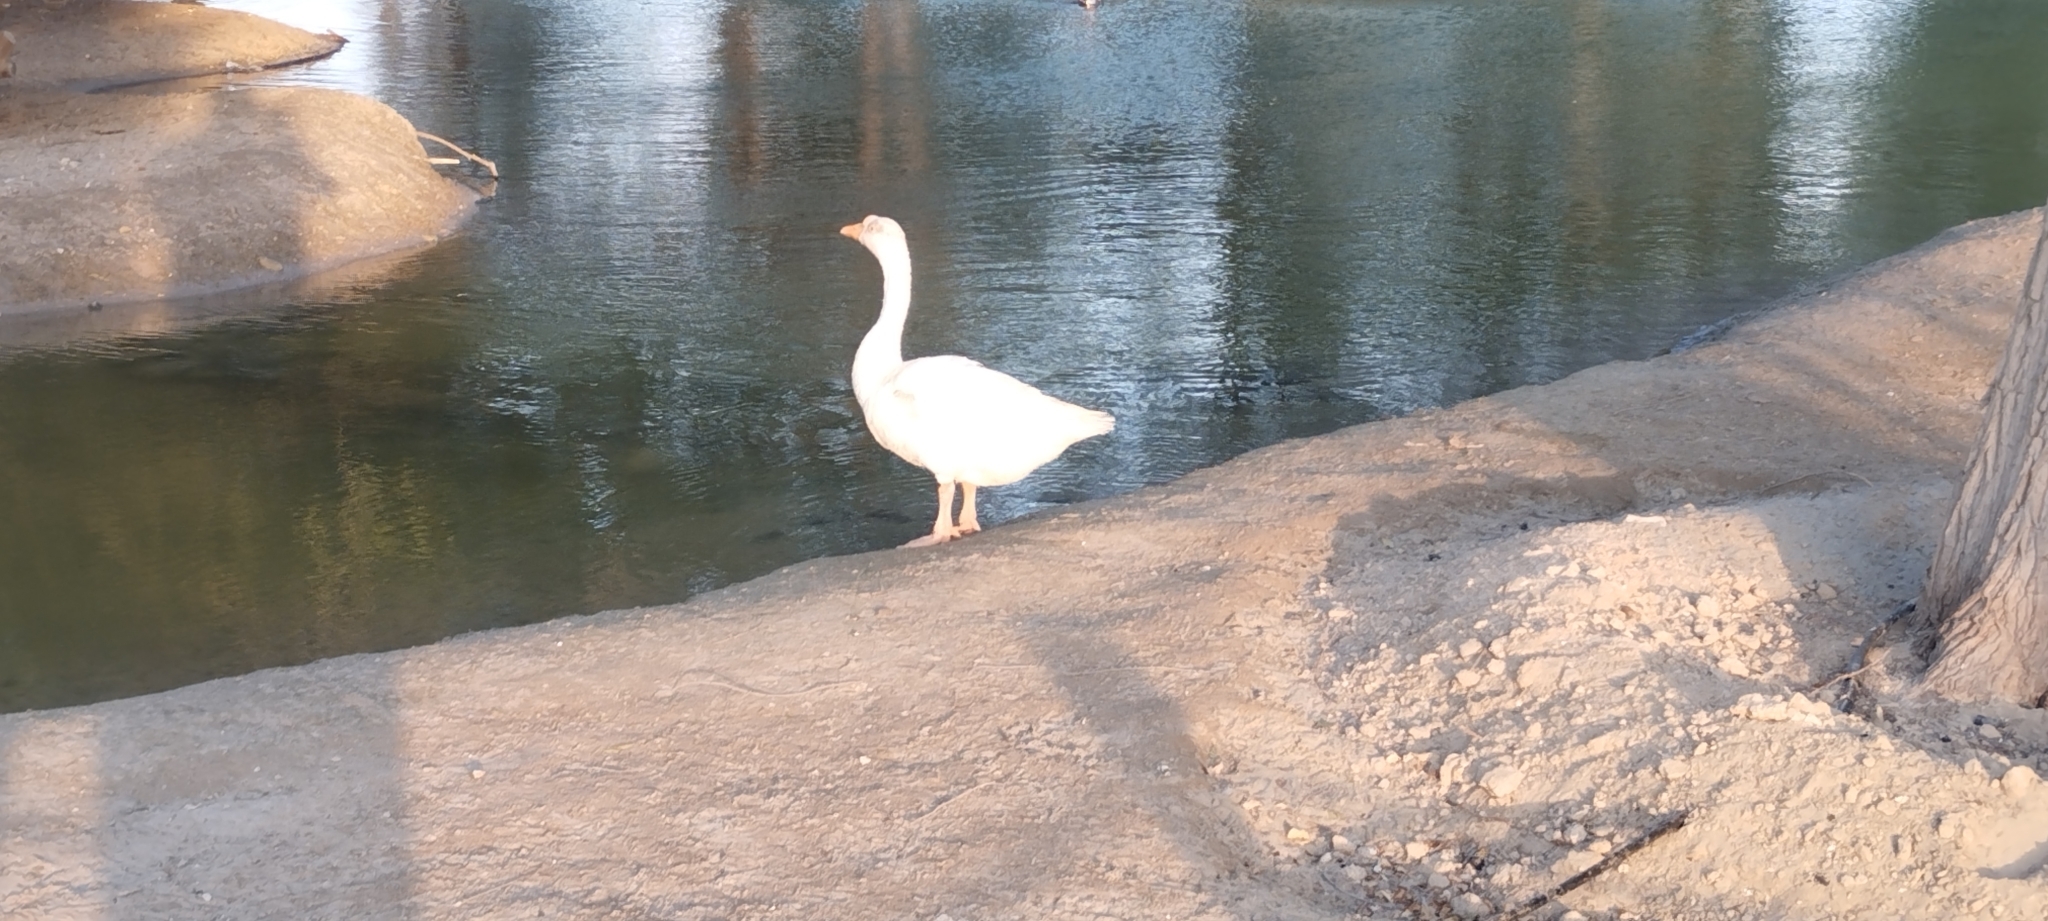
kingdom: Animalia
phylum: Chordata
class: Aves
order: Anseriformes
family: Anatidae
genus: Anser
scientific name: Anser
